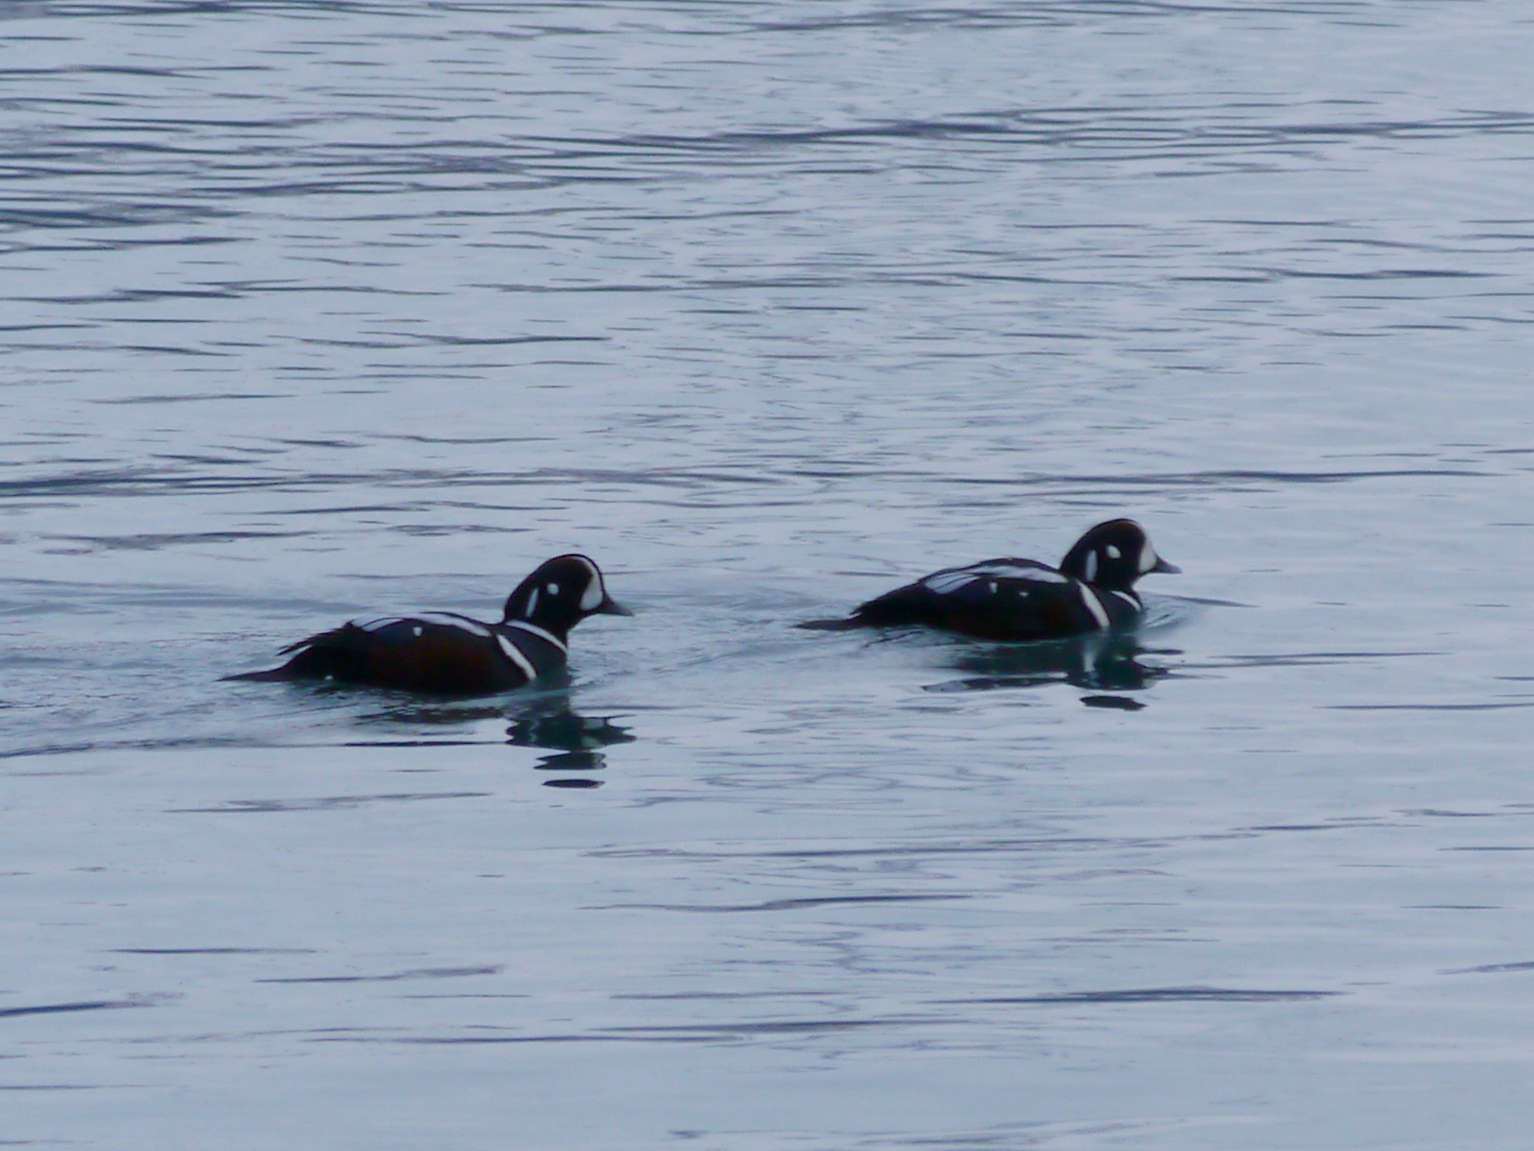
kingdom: Animalia
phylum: Chordata
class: Aves
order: Anseriformes
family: Anatidae
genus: Histrionicus
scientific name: Histrionicus histrionicus
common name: Harlequin duck
